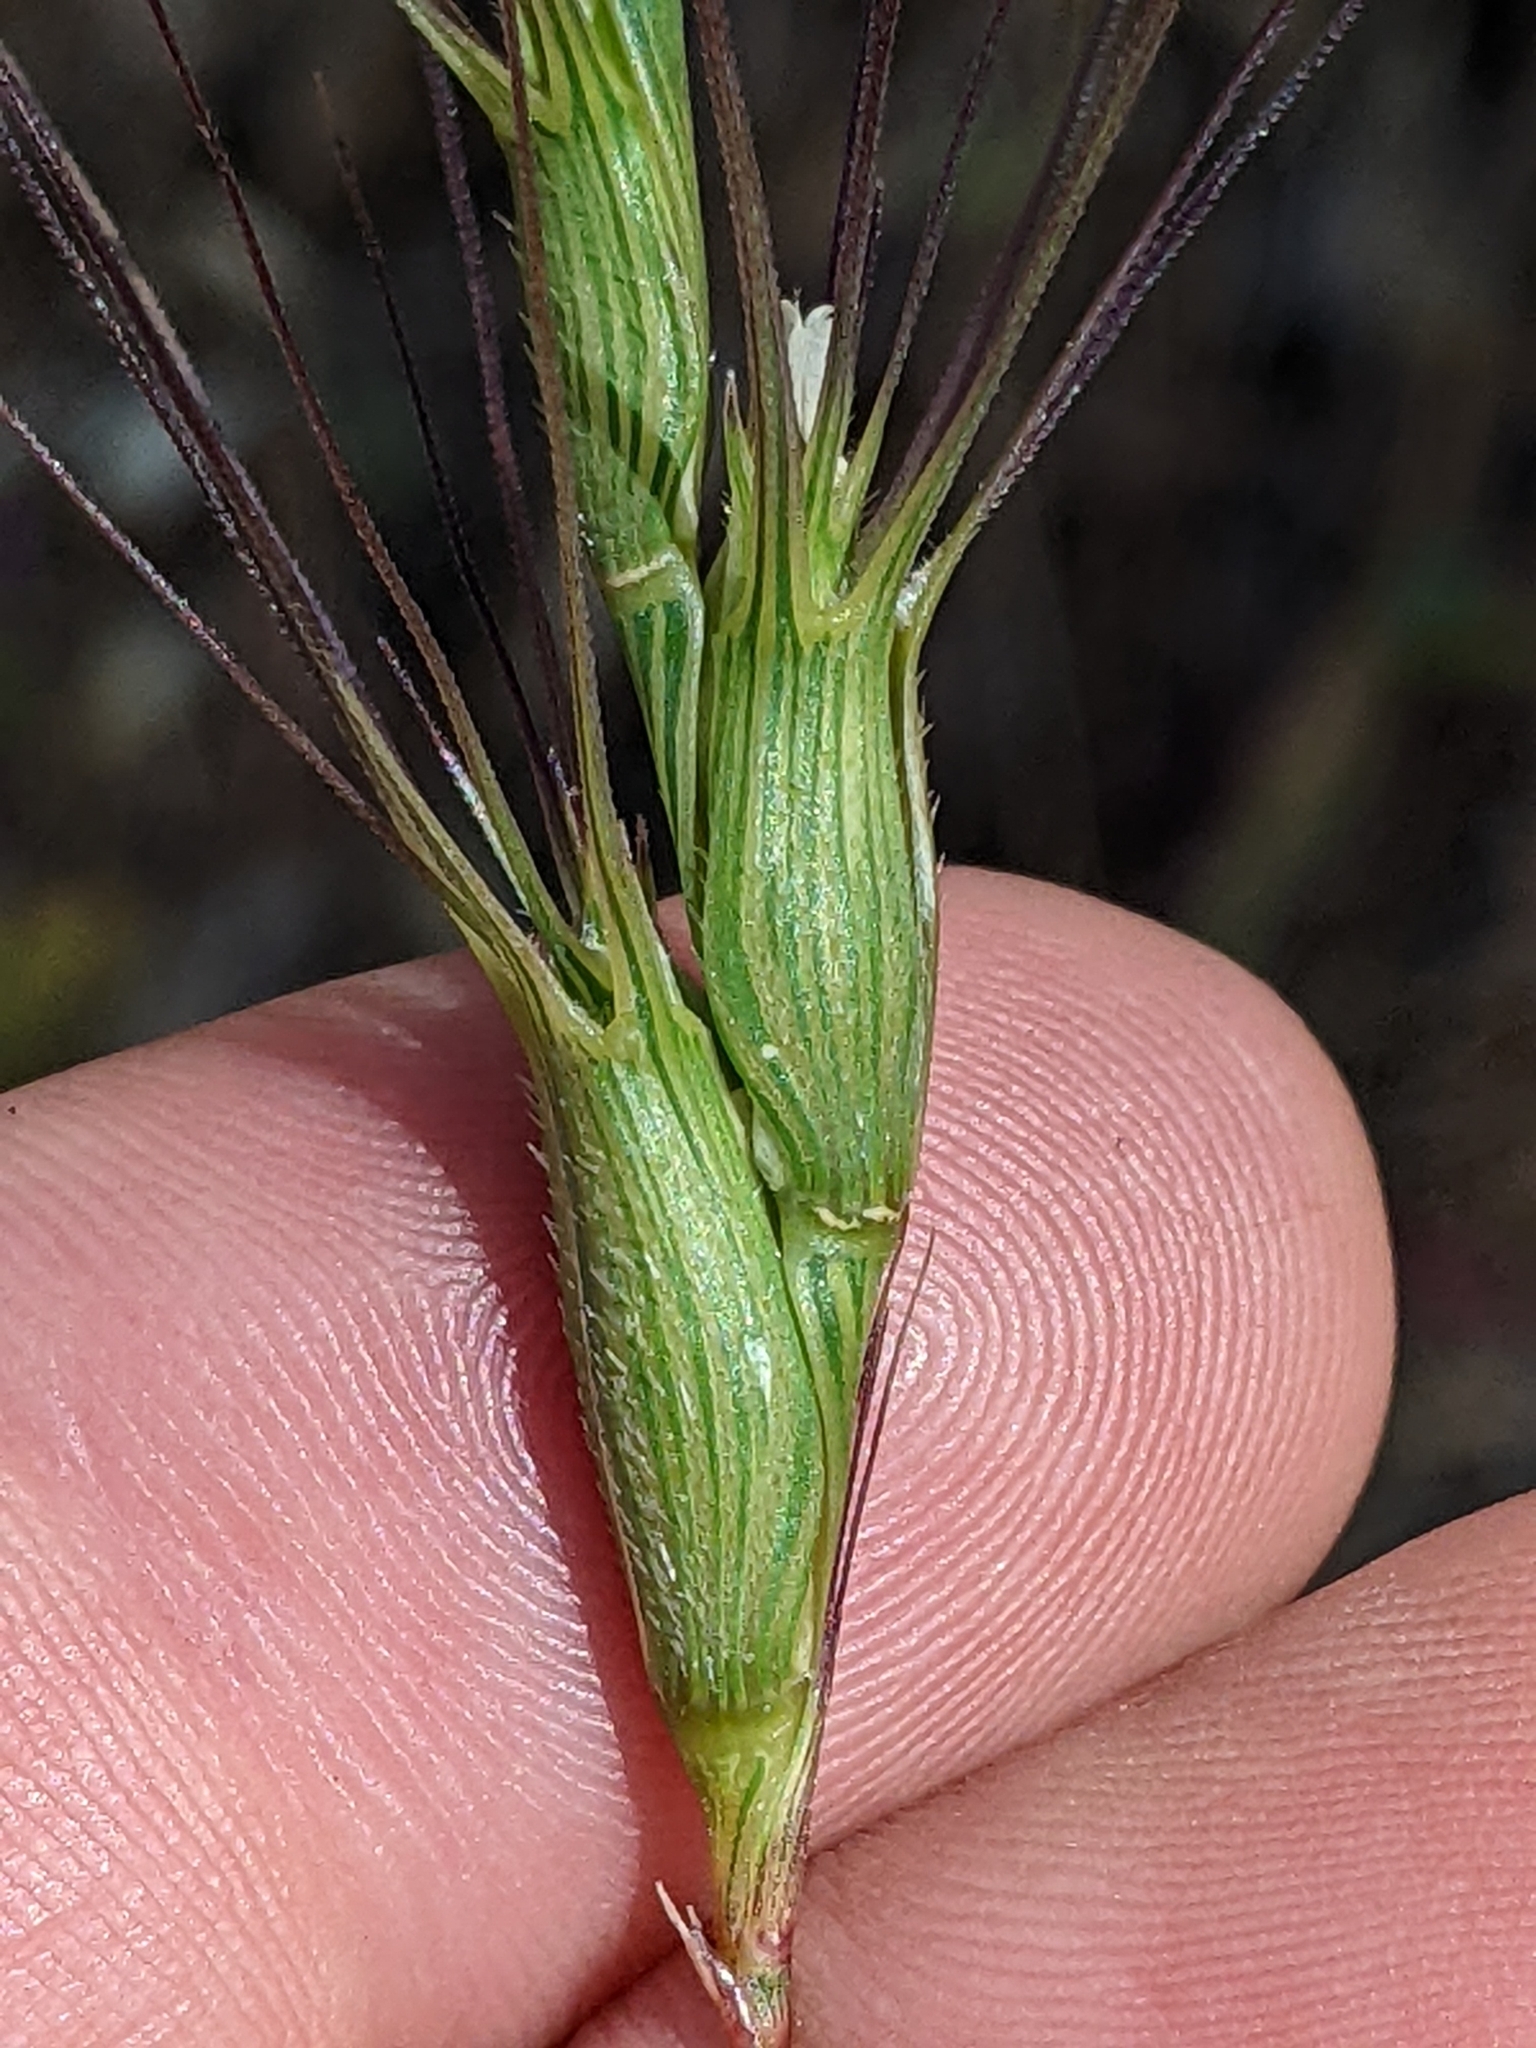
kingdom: Plantae
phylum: Tracheophyta
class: Liliopsida
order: Poales
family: Poaceae
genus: Aegilops
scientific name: Aegilops triuncialis
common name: Barb goat grass
